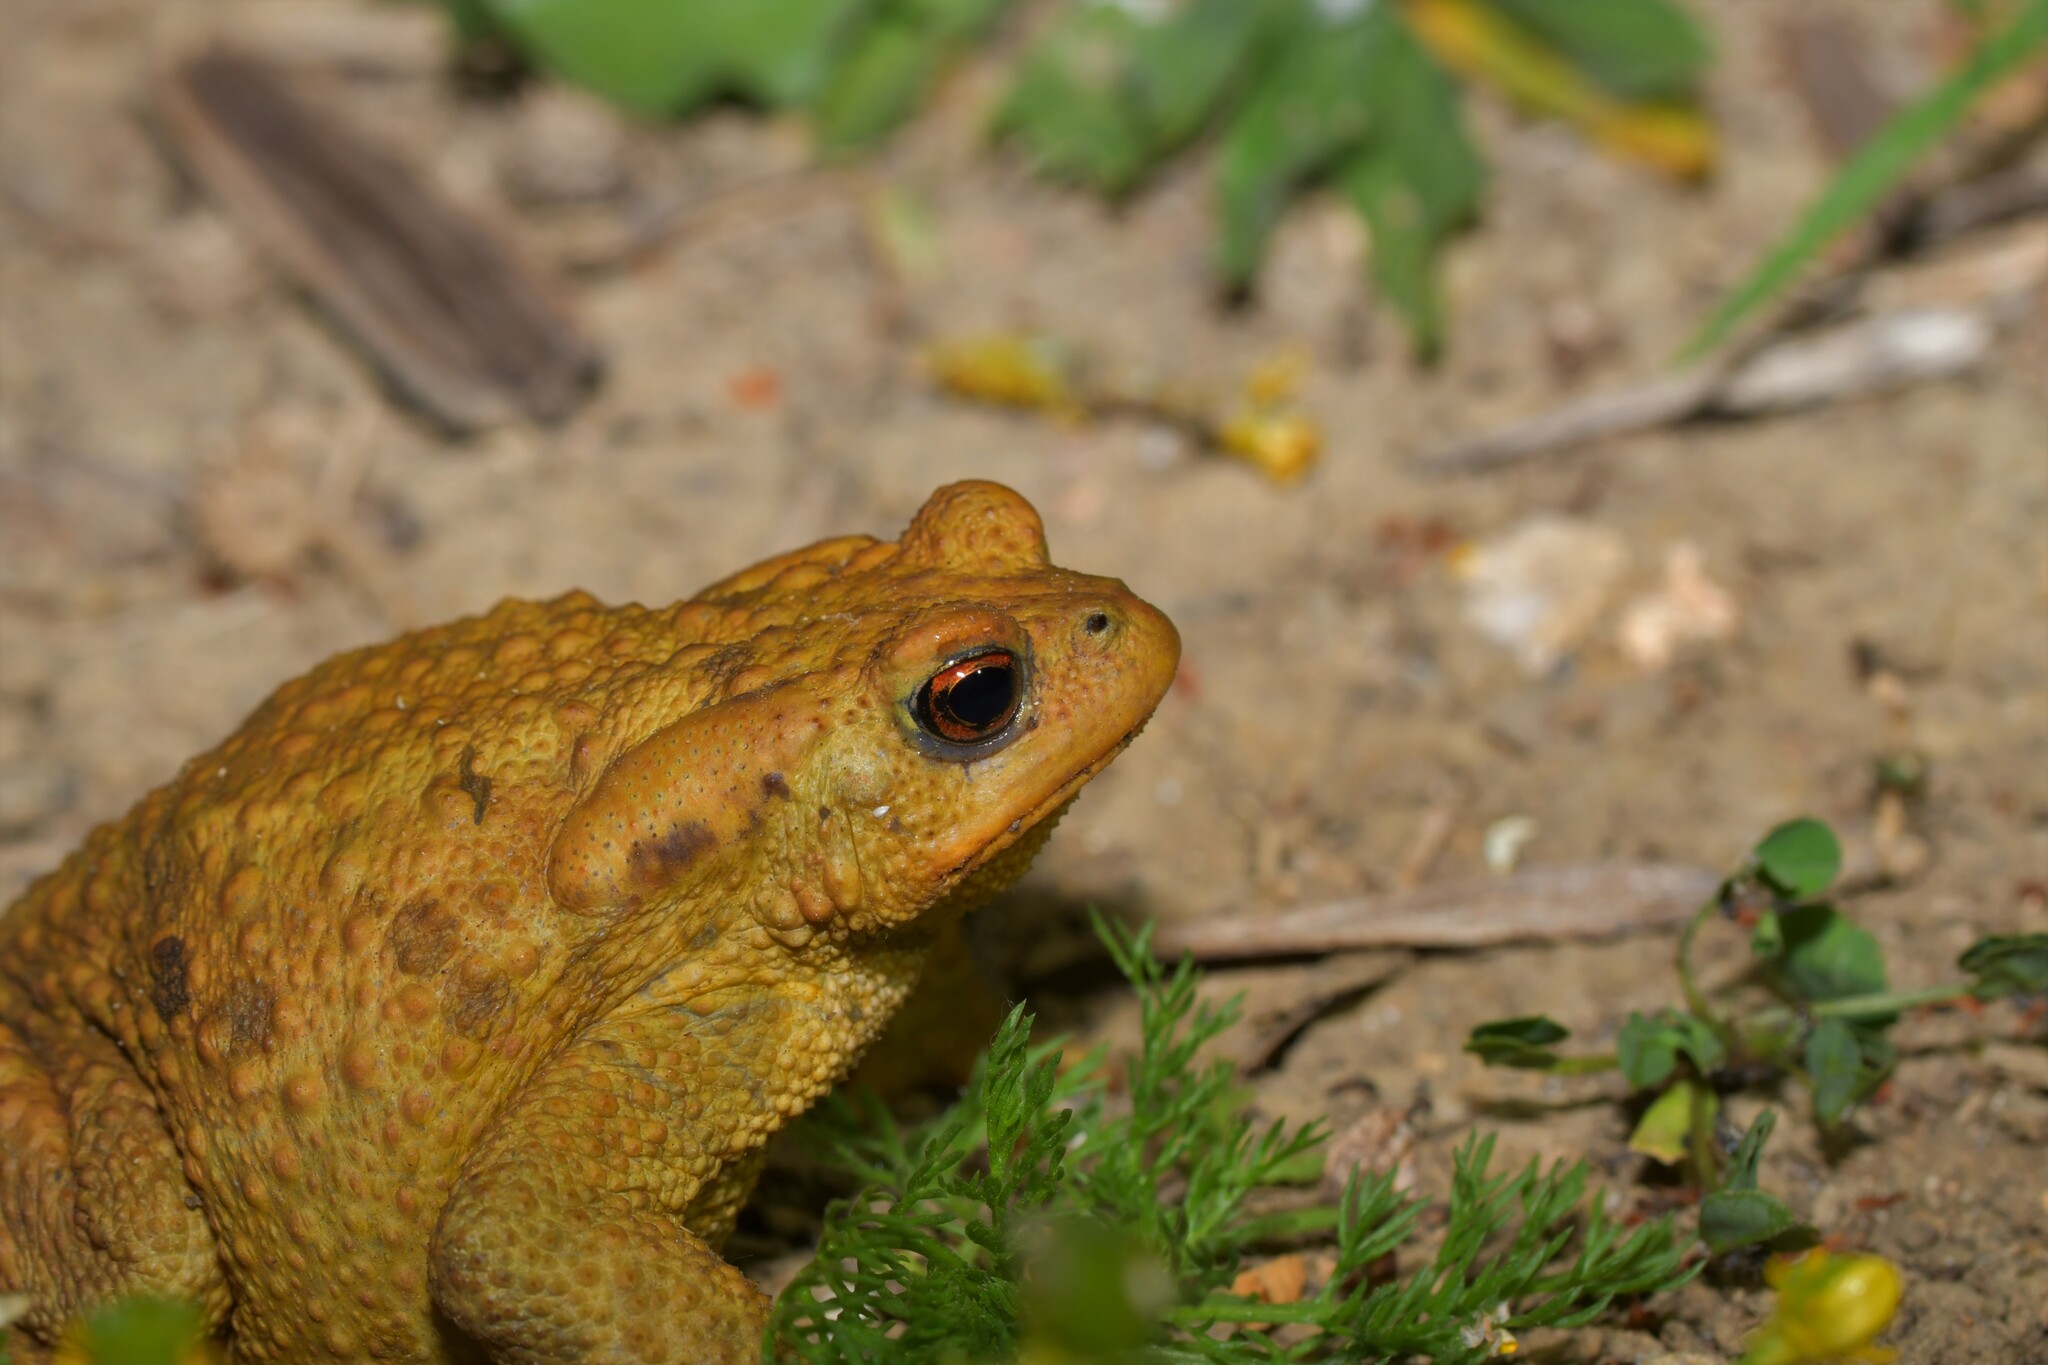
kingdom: Animalia
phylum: Chordata
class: Amphibia
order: Anura
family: Bufonidae
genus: Bufo
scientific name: Bufo spinosus
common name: Western common toad
